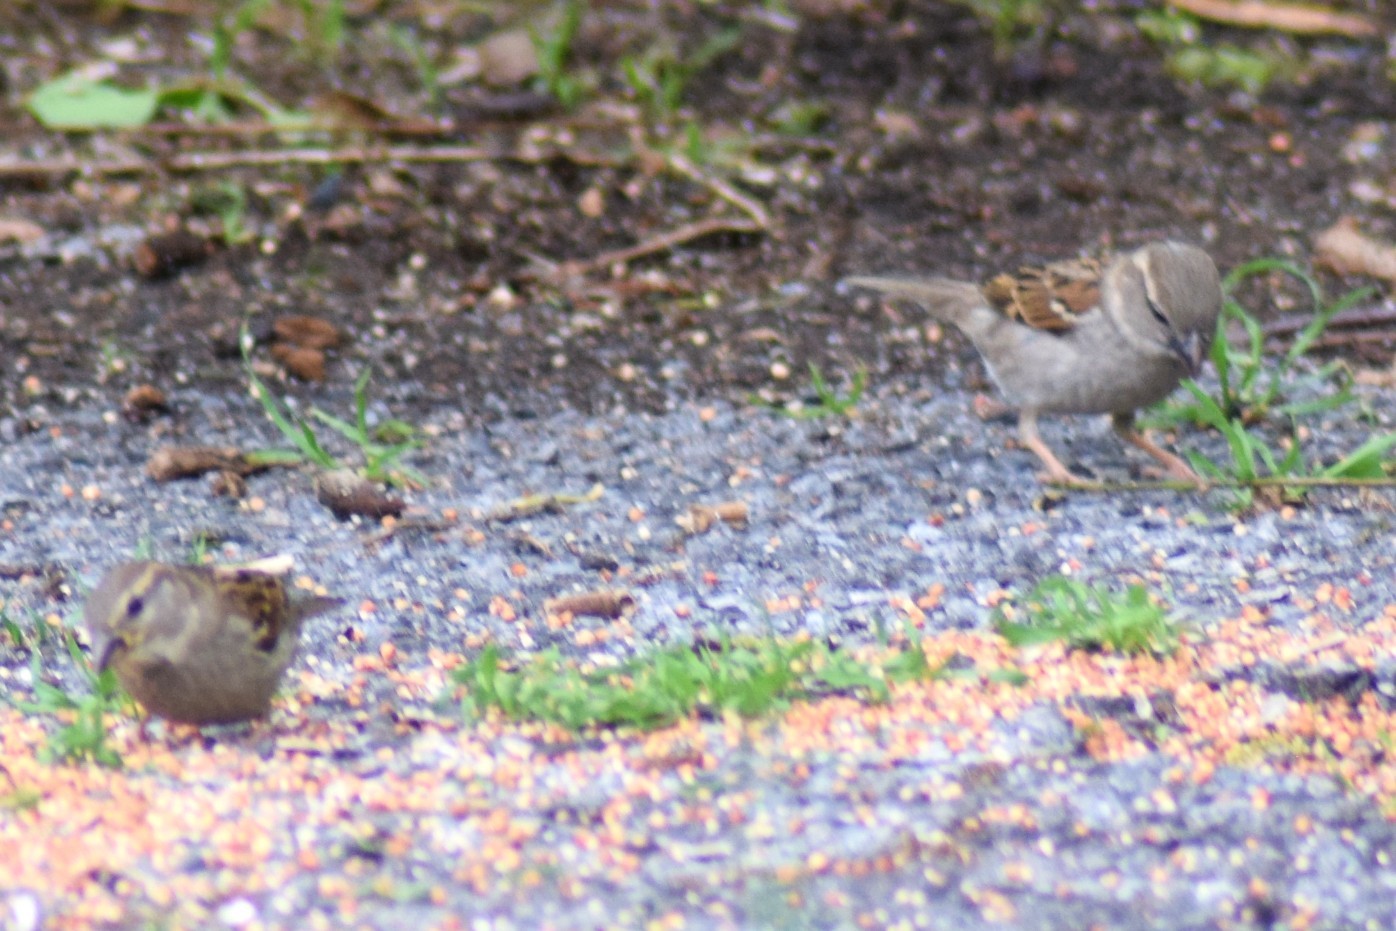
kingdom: Animalia
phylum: Chordata
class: Aves
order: Passeriformes
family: Passeridae
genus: Passer
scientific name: Passer domesticus
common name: House sparrow
